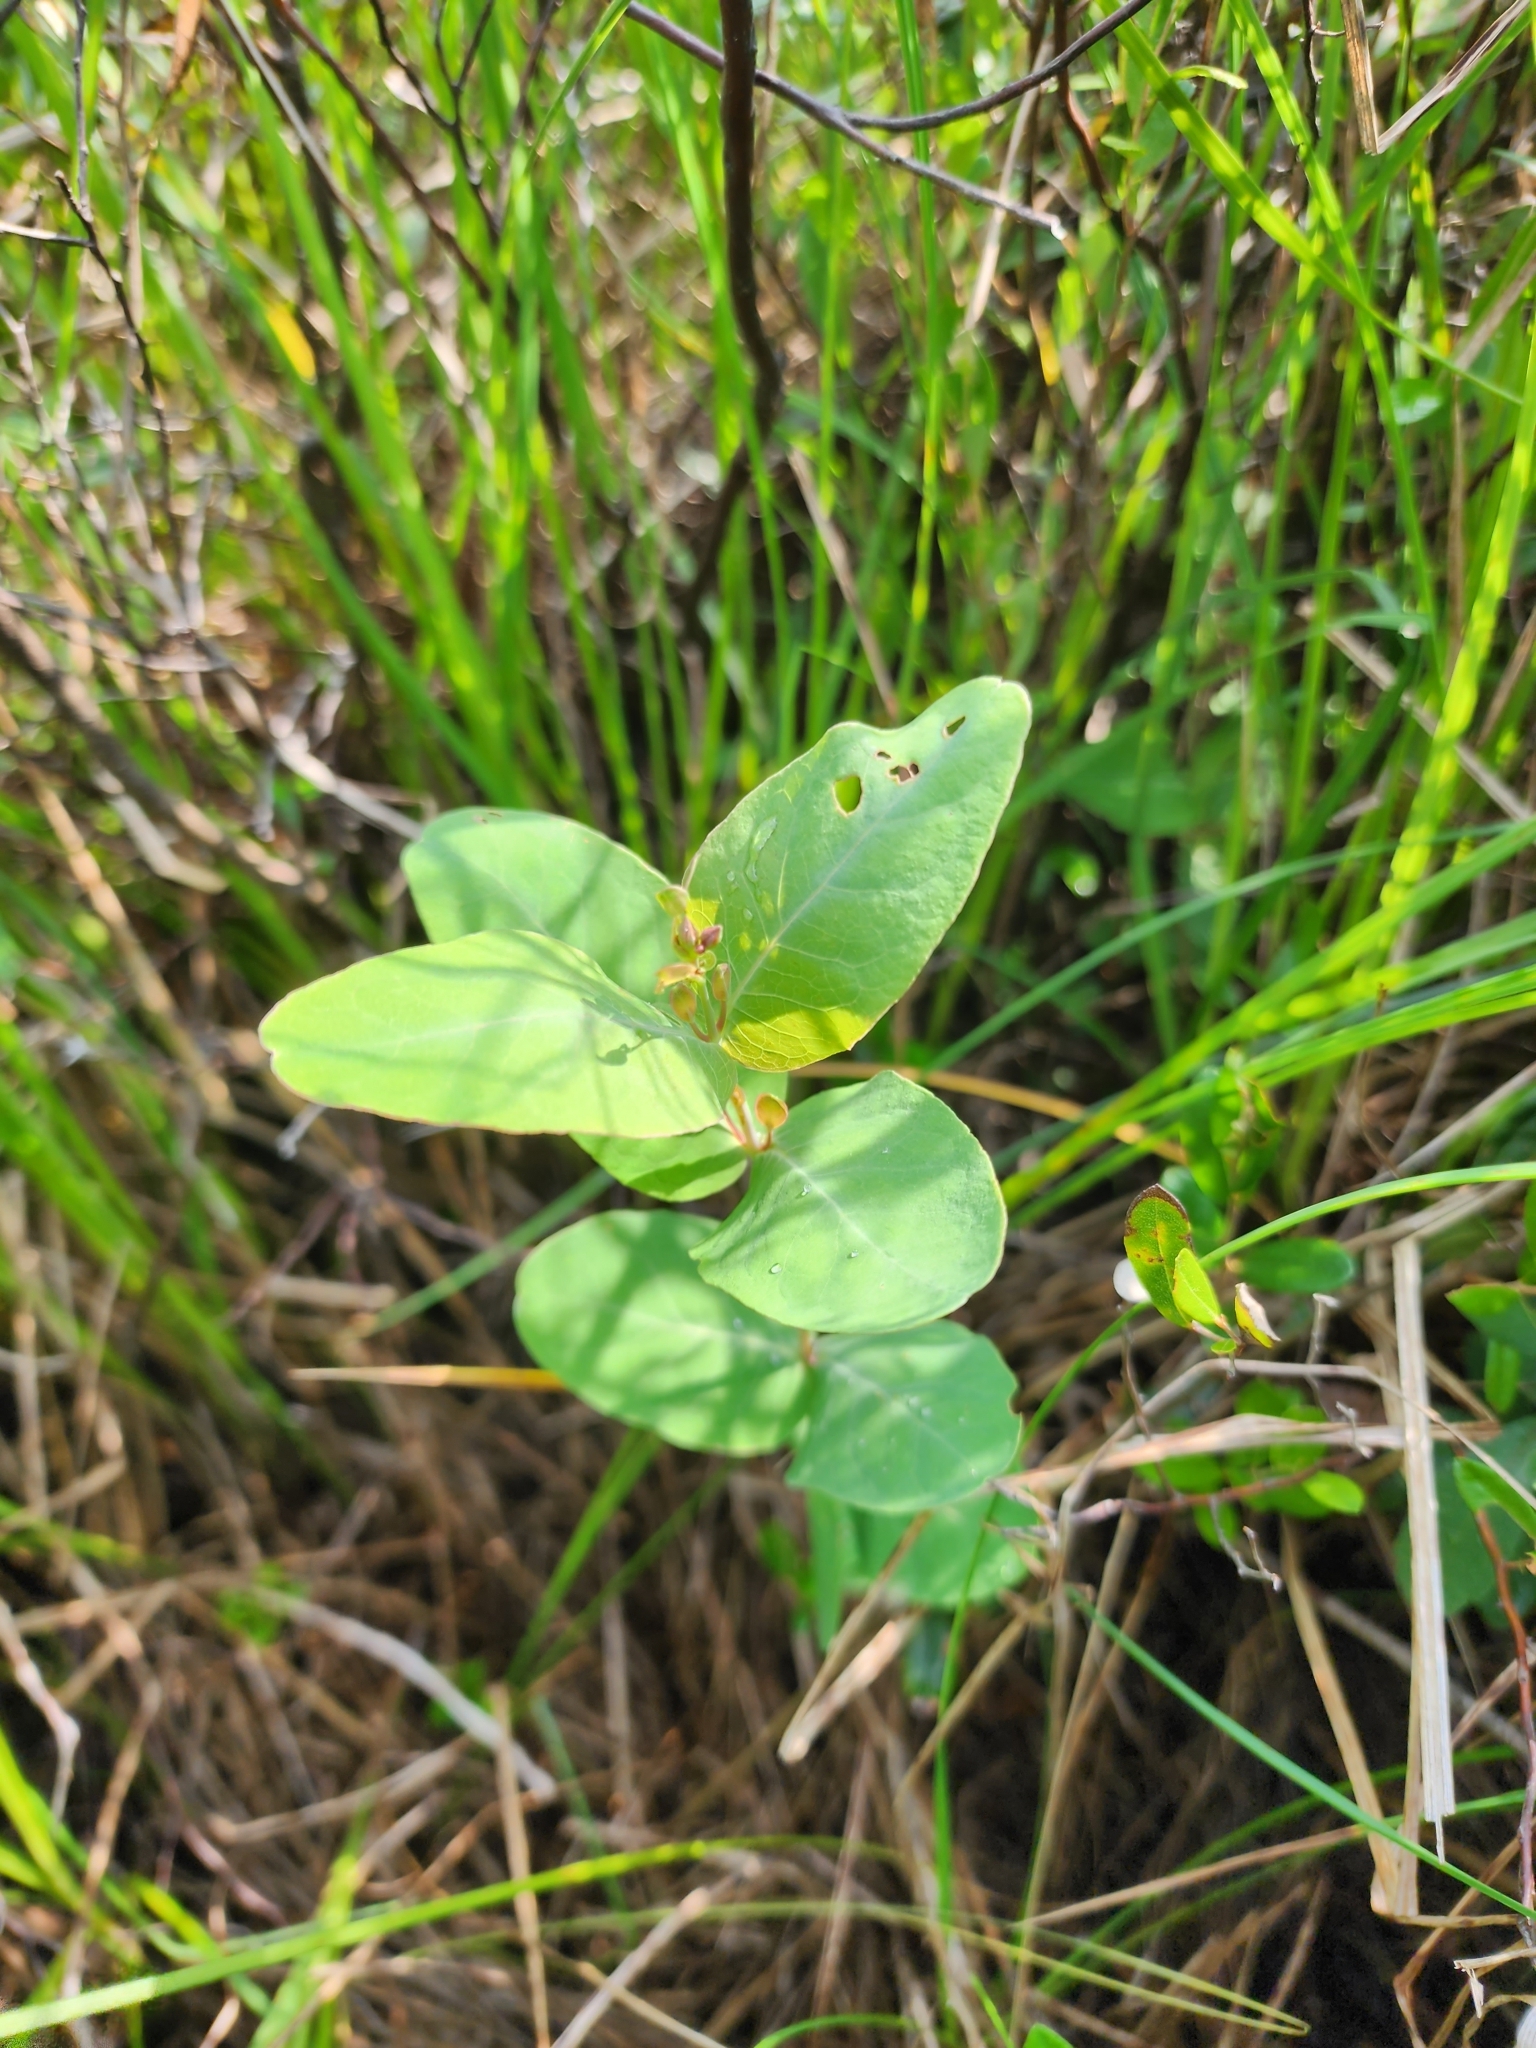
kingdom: Plantae
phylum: Tracheophyta
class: Magnoliopsida
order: Malpighiales
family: Hypericaceae
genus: Triadenum
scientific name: Triadenum fraseri
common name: Fraser's marsh st. johnswort
